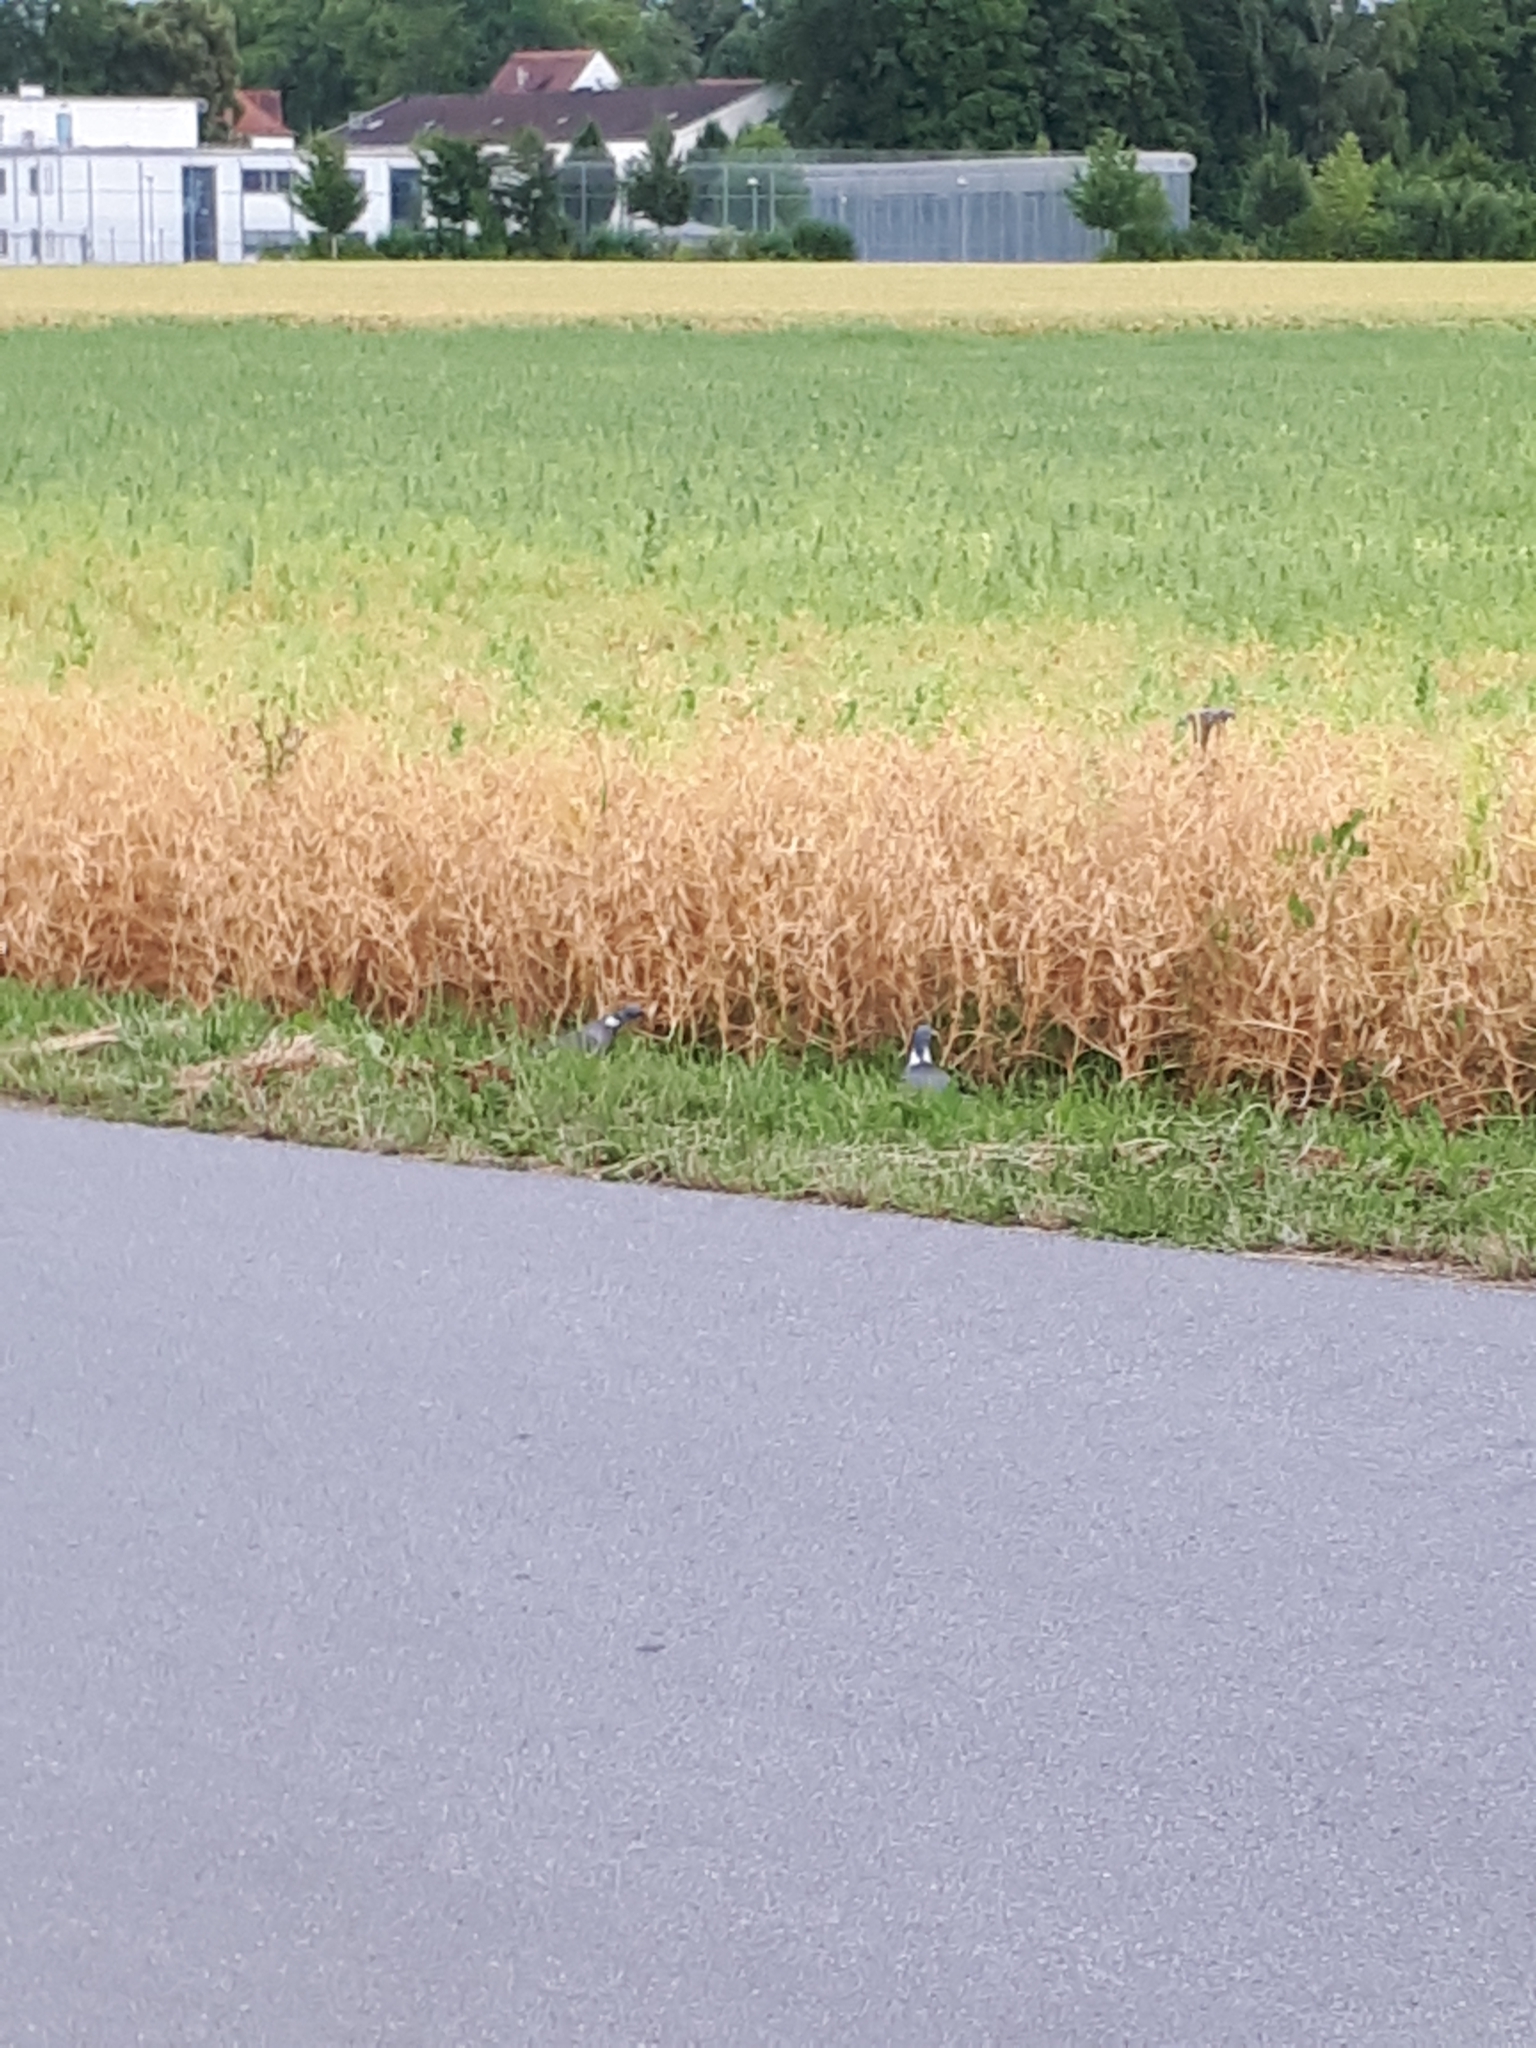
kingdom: Animalia
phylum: Chordata
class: Aves
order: Columbiformes
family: Columbidae
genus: Columba
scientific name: Columba palumbus
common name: Common wood pigeon
